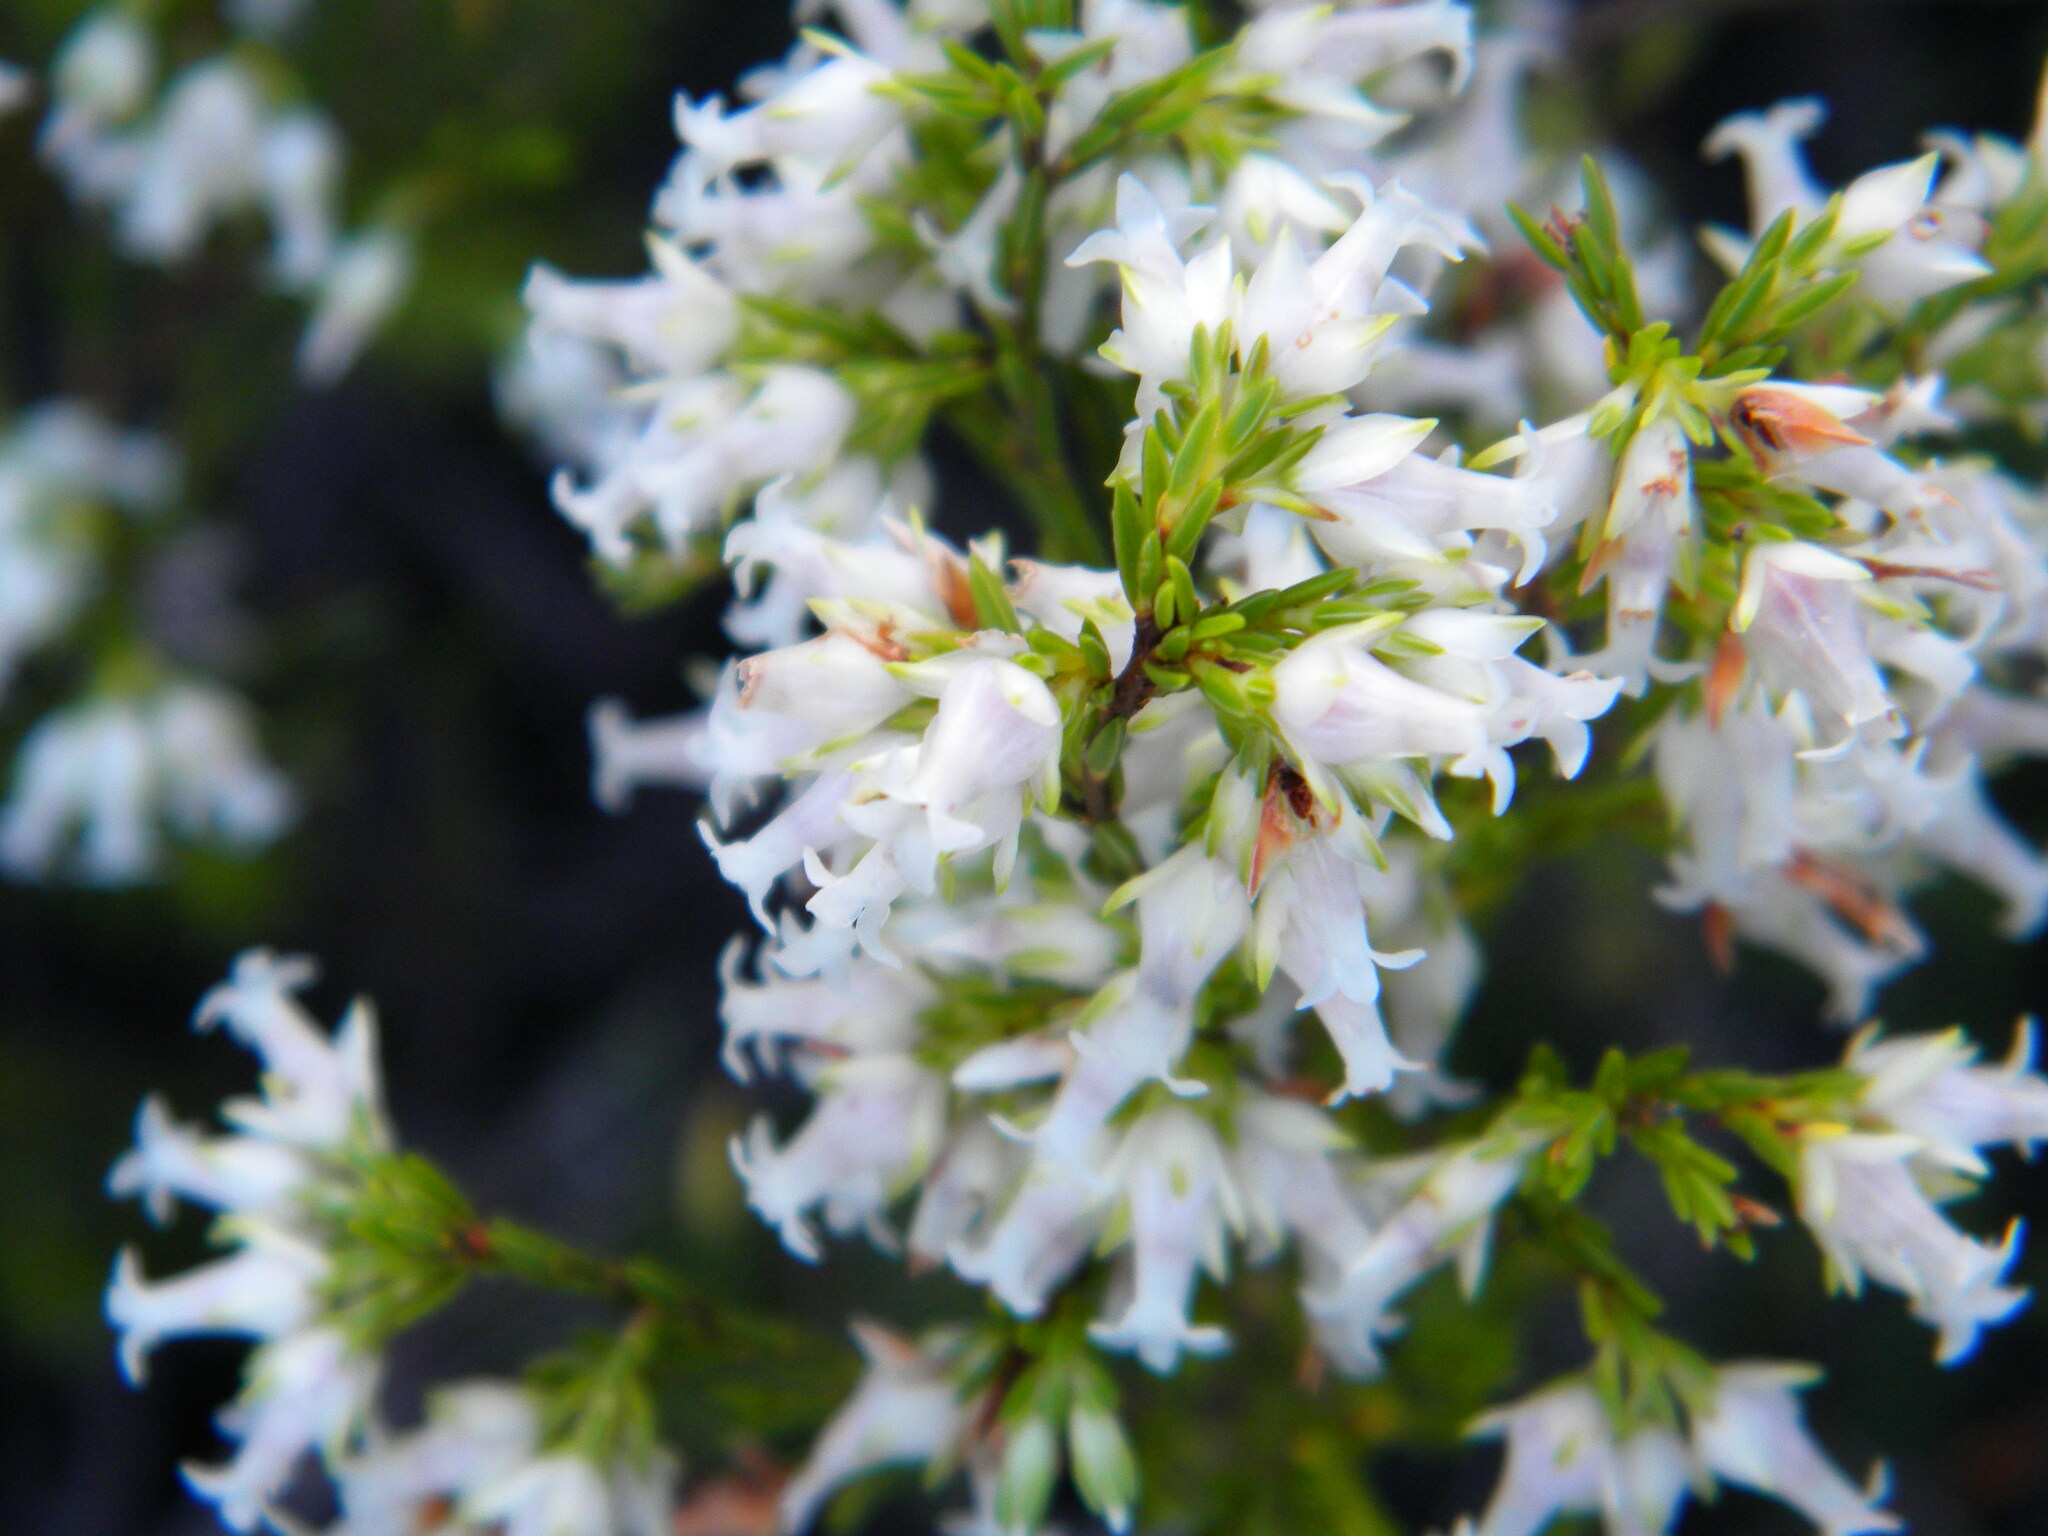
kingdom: Plantae
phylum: Tracheophyta
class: Magnoliopsida
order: Ericales
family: Ericaceae
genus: Erica
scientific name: Erica lutea
